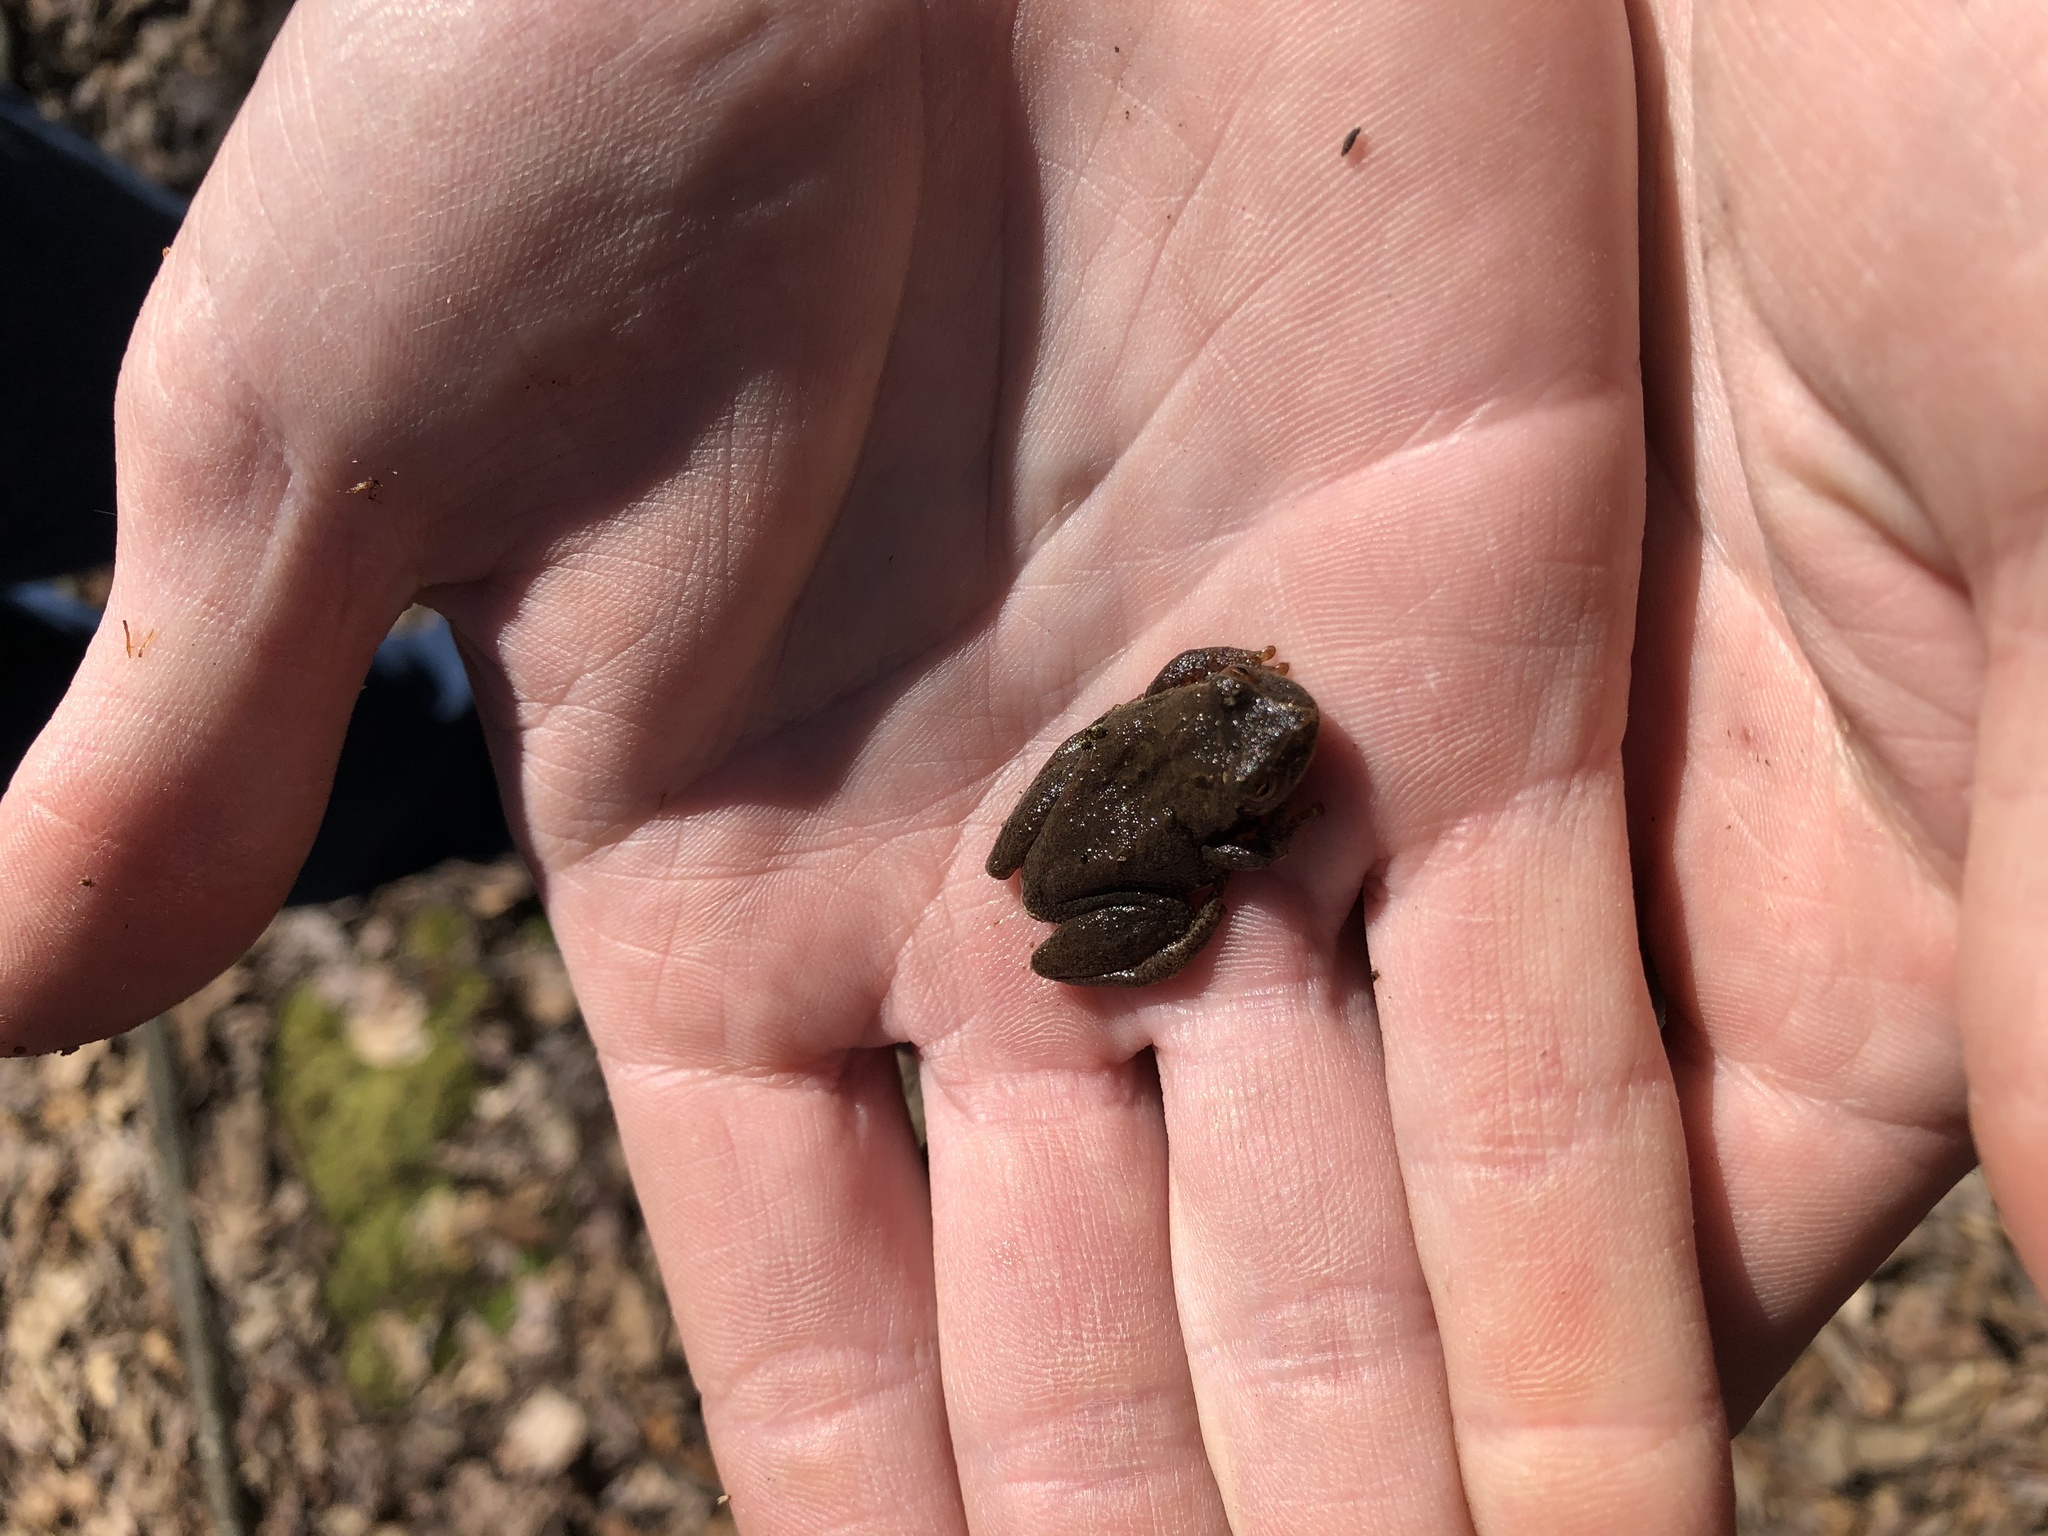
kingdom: Animalia
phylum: Chordata
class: Amphibia
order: Anura
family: Hylidae
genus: Pseudacris
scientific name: Pseudacris crucifer
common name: Spring peeper
